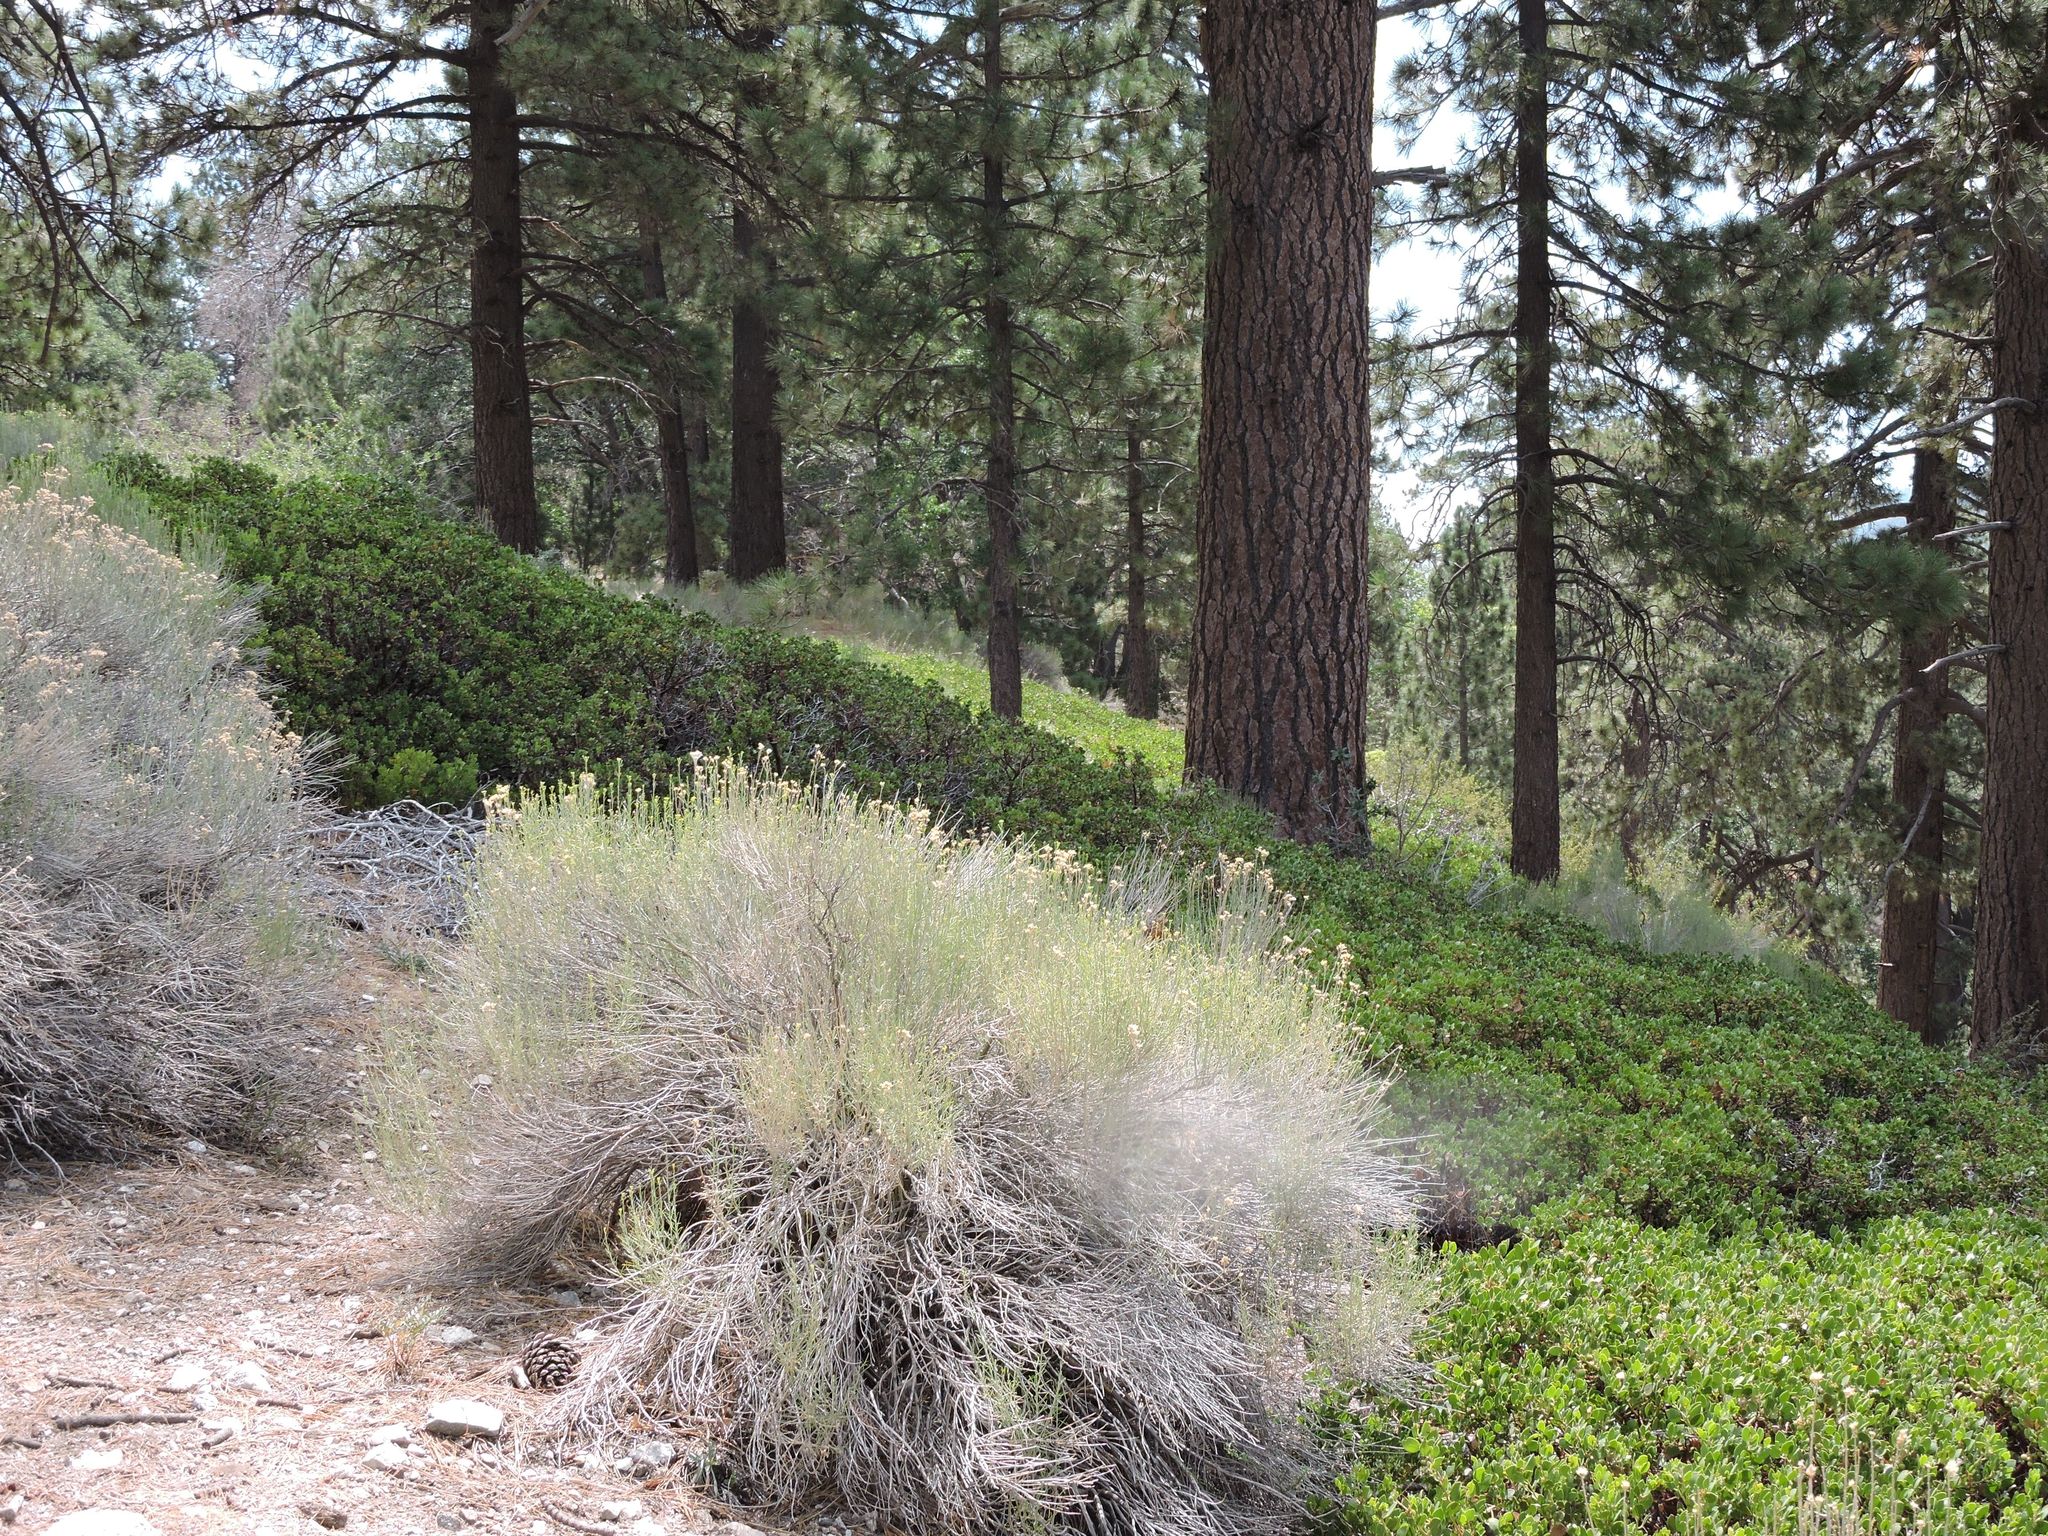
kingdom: Plantae
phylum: Tracheophyta
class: Magnoliopsida
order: Ericales
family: Ericaceae
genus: Arctostaphylos
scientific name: Arctostaphylos parryana
